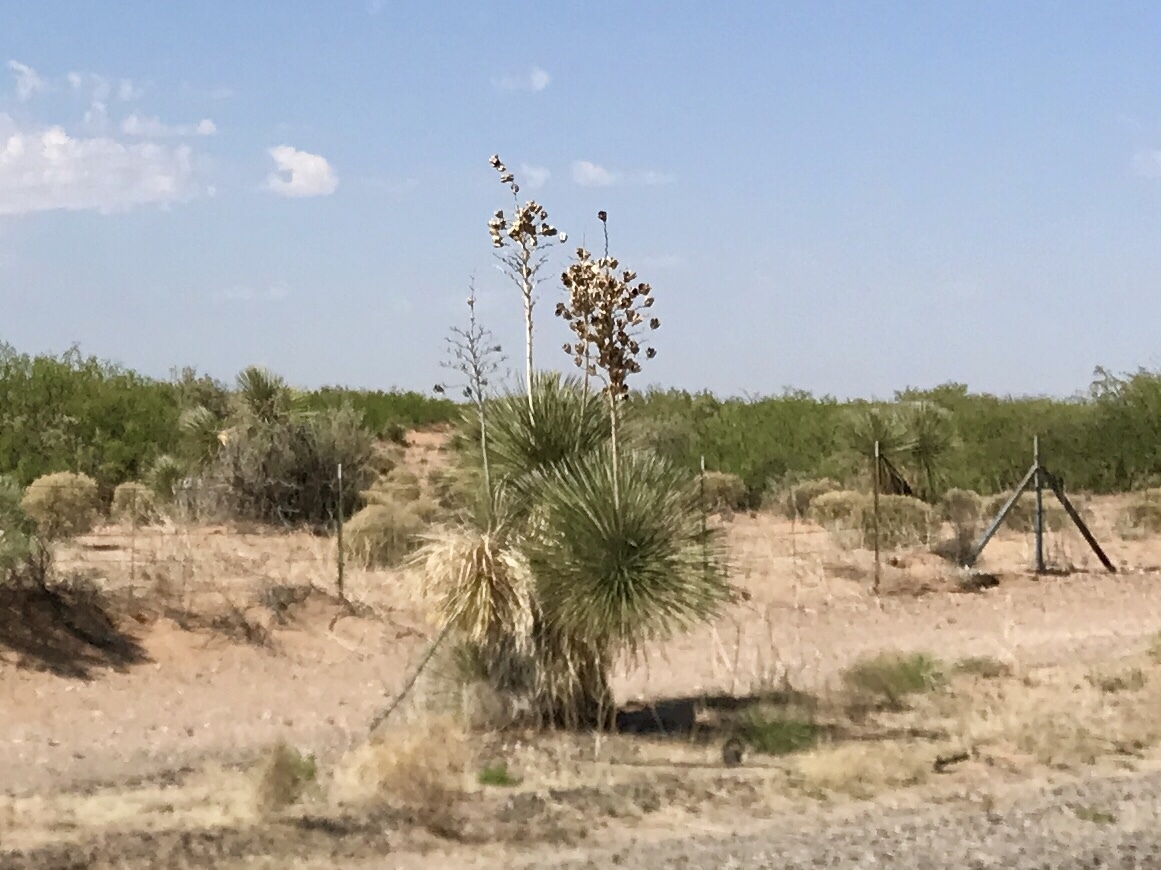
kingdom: Plantae
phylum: Tracheophyta
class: Liliopsida
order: Asparagales
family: Asparagaceae
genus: Yucca
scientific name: Yucca elata
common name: Palmella
